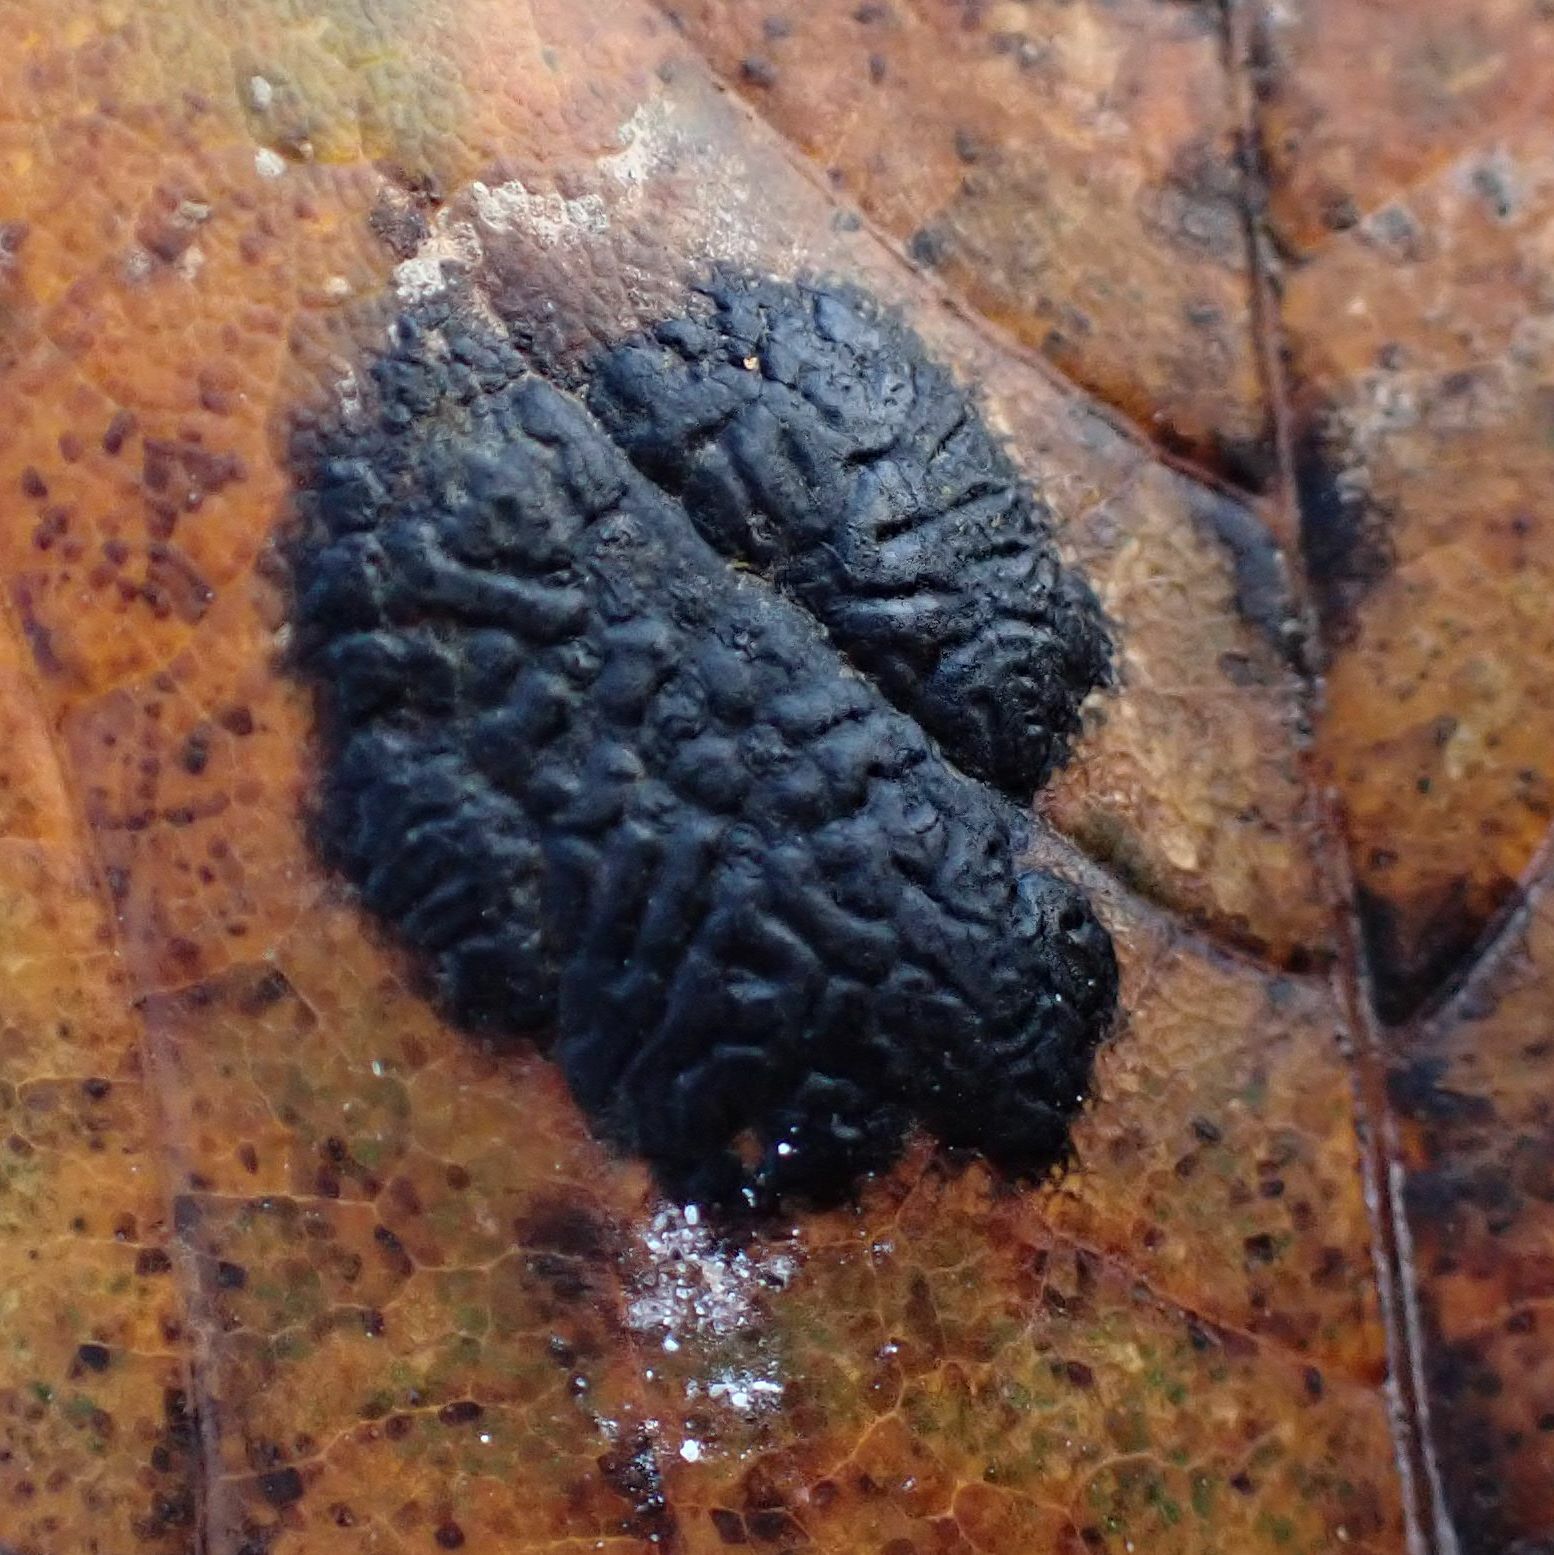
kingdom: Fungi
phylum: Ascomycota
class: Leotiomycetes
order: Rhytismatales
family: Rhytismataceae
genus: Rhytisma
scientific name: Rhytisma acerinum
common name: European tar spot
